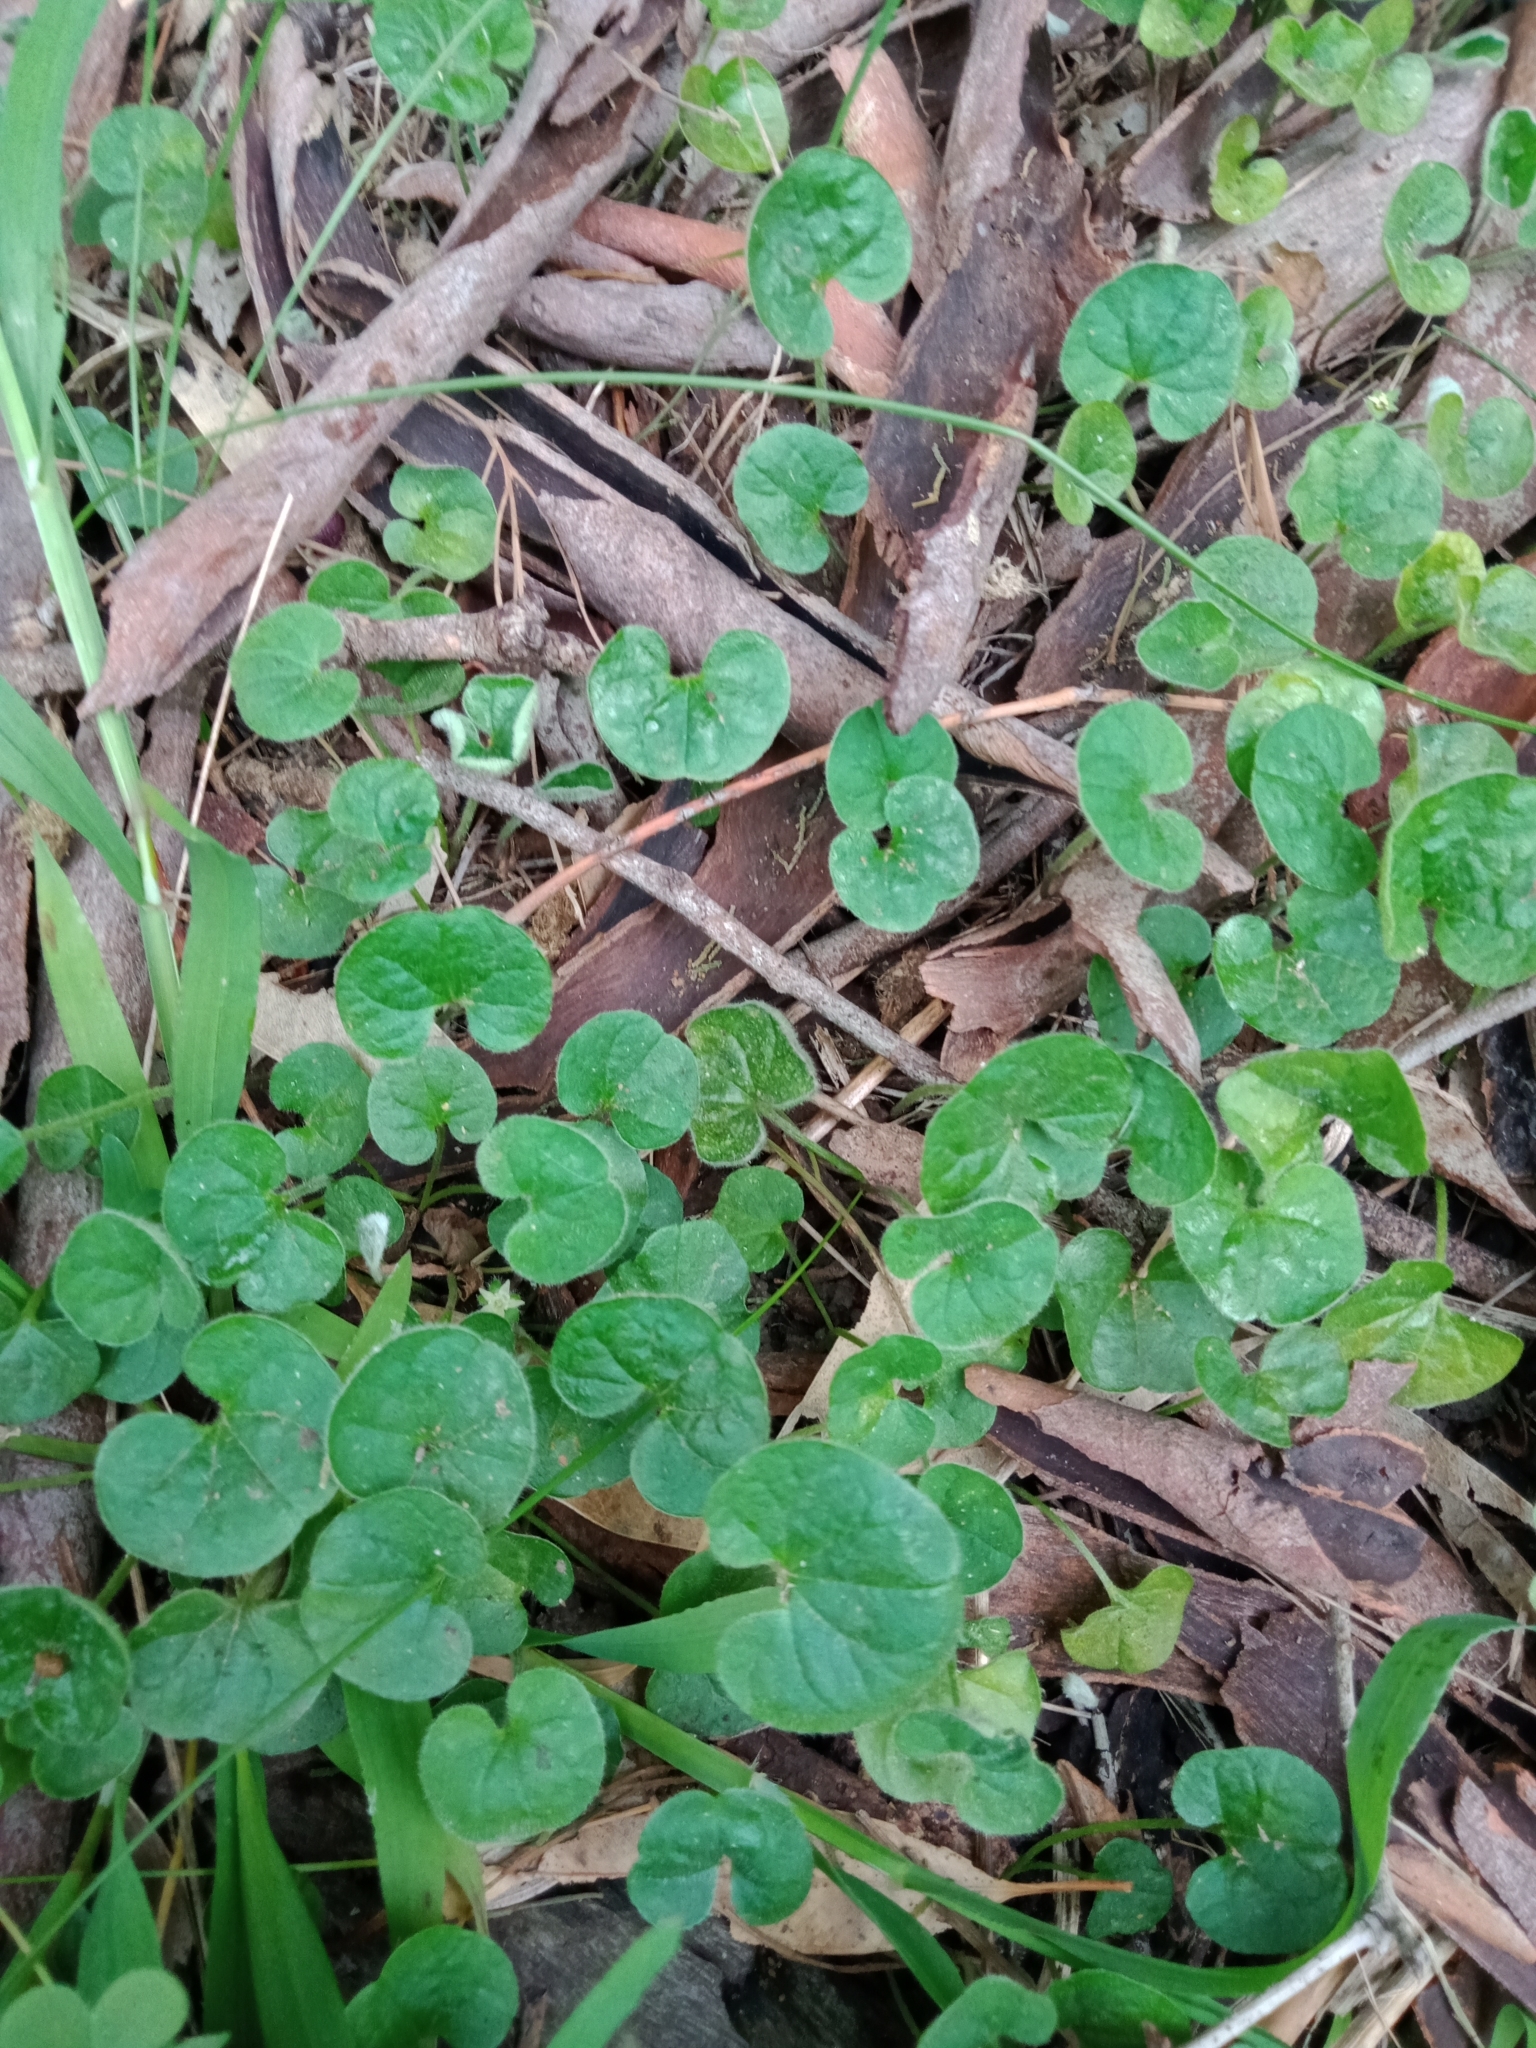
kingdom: Plantae
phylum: Tracheophyta
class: Magnoliopsida
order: Solanales
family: Convolvulaceae
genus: Dichondra
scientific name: Dichondra repens
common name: Kidneyweed
